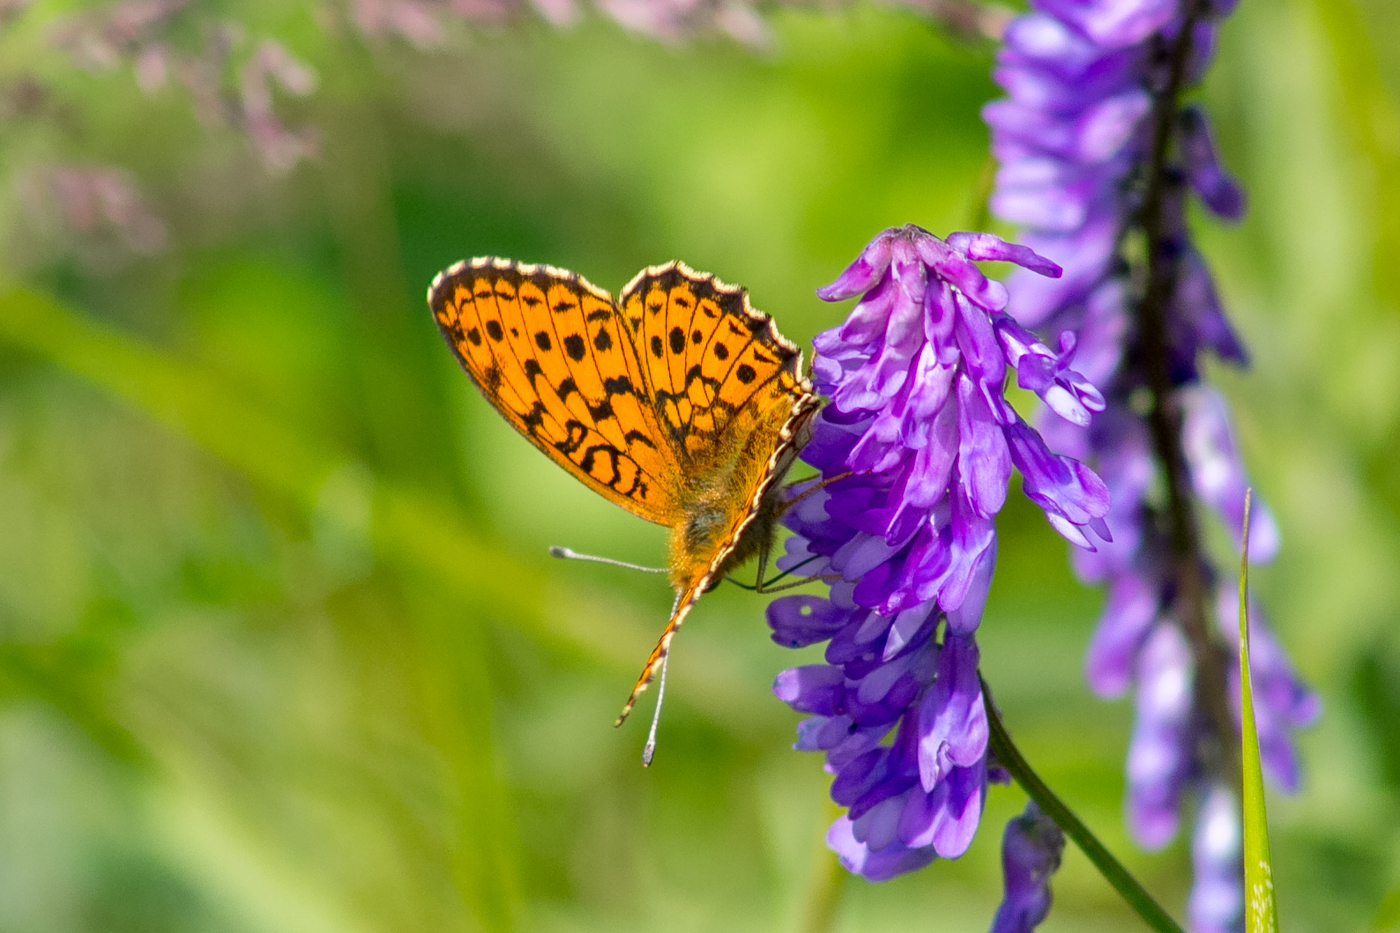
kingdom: Animalia
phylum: Arthropoda
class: Insecta
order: Lepidoptera
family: Nymphalidae
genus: Brenthis
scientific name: Brenthis ino
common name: Lesser marbled fritillary
